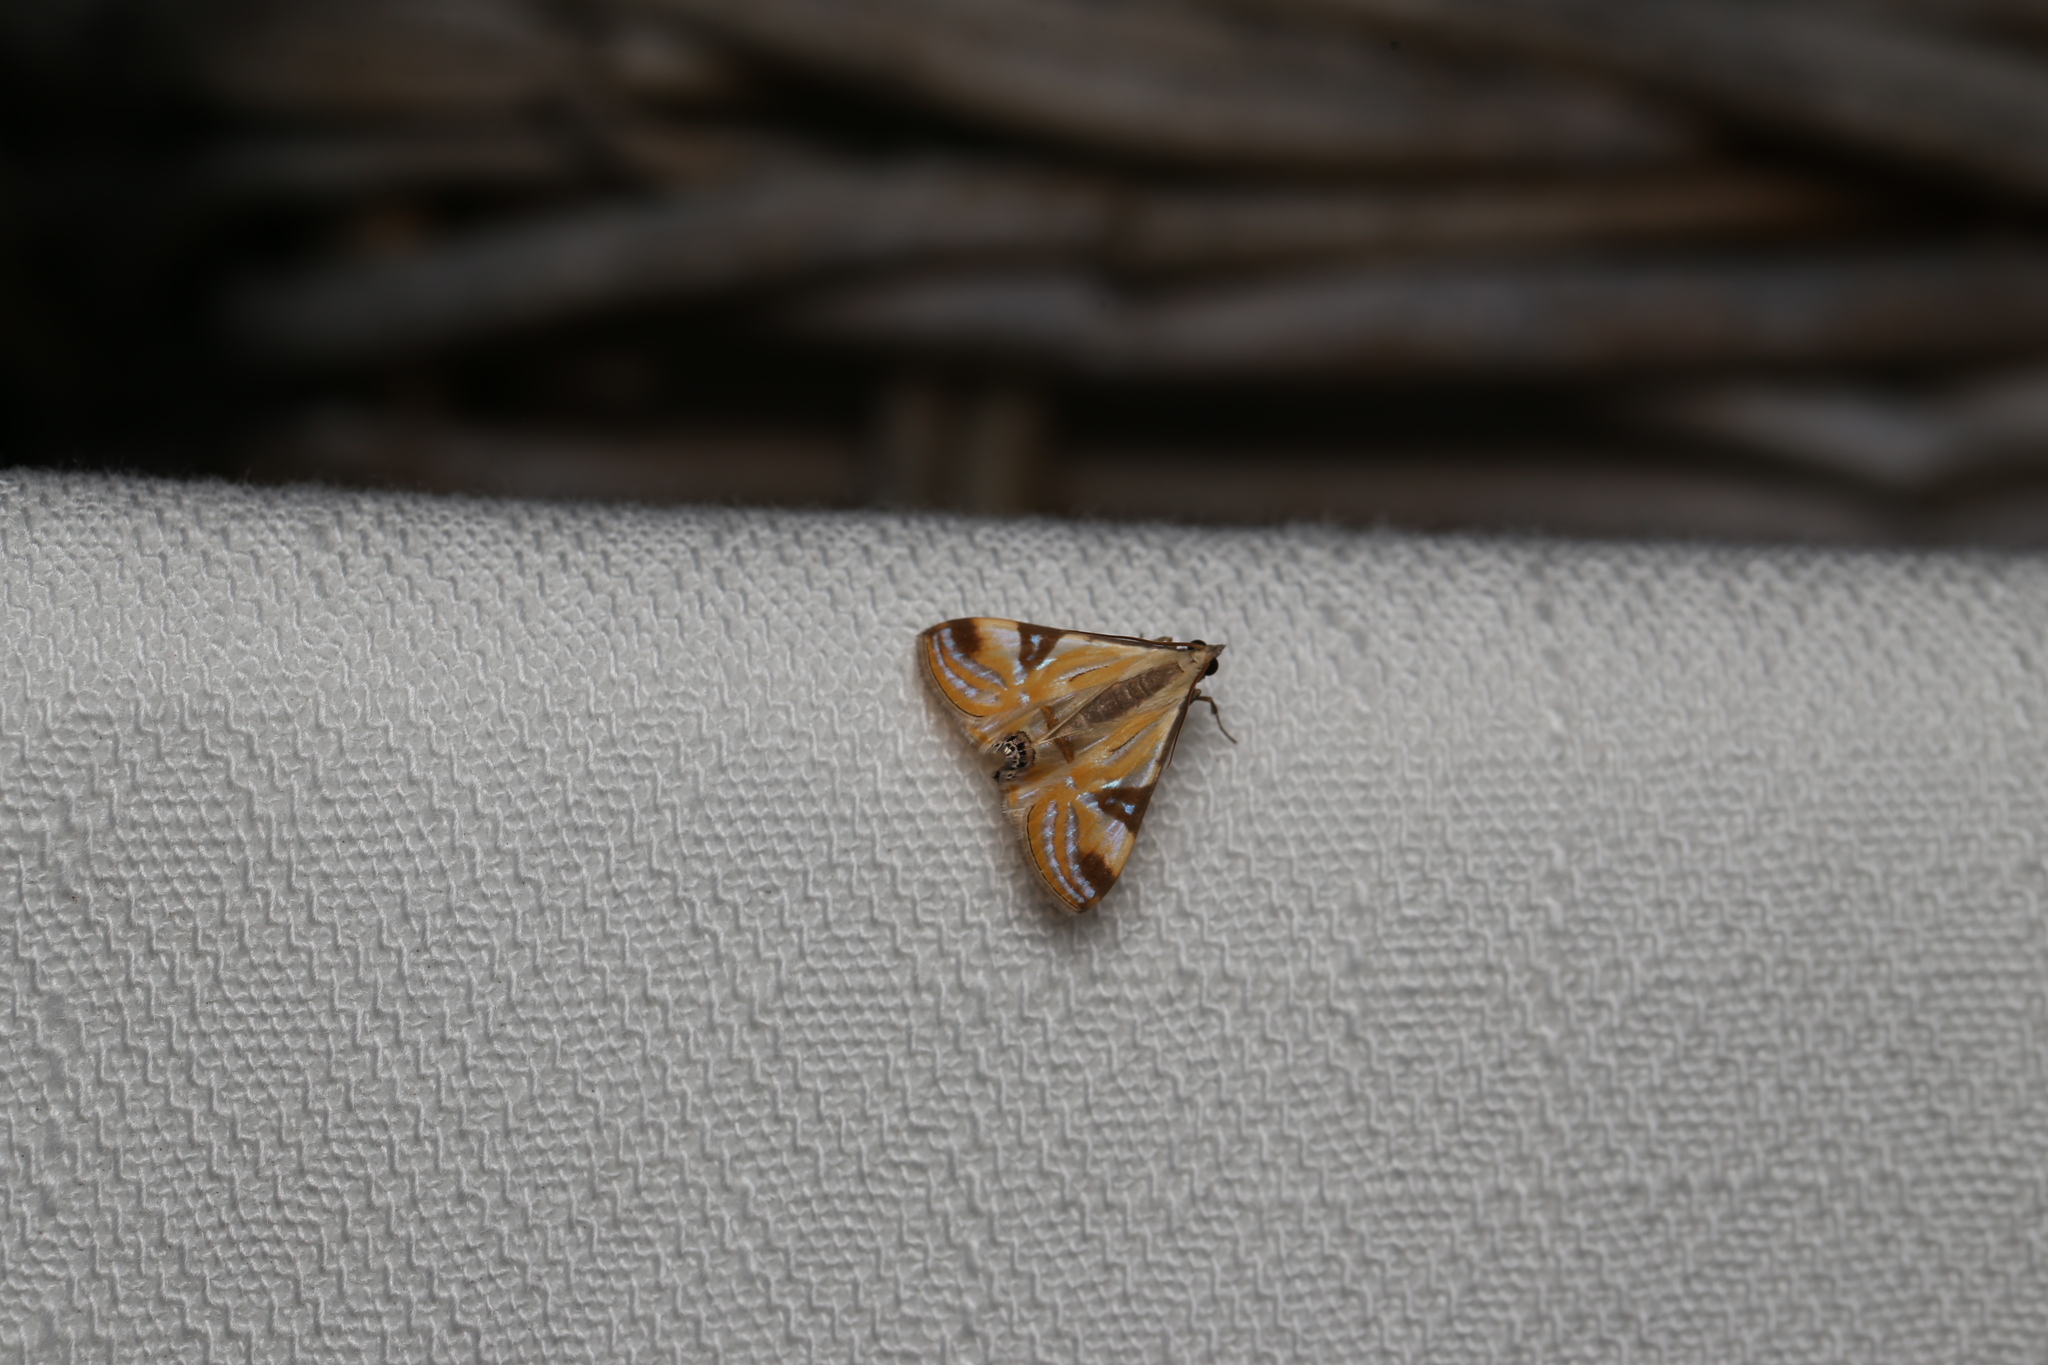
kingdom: Animalia
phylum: Arthropoda
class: Insecta
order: Lepidoptera
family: Crambidae
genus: Talanga
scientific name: Talanga tolumnialis
